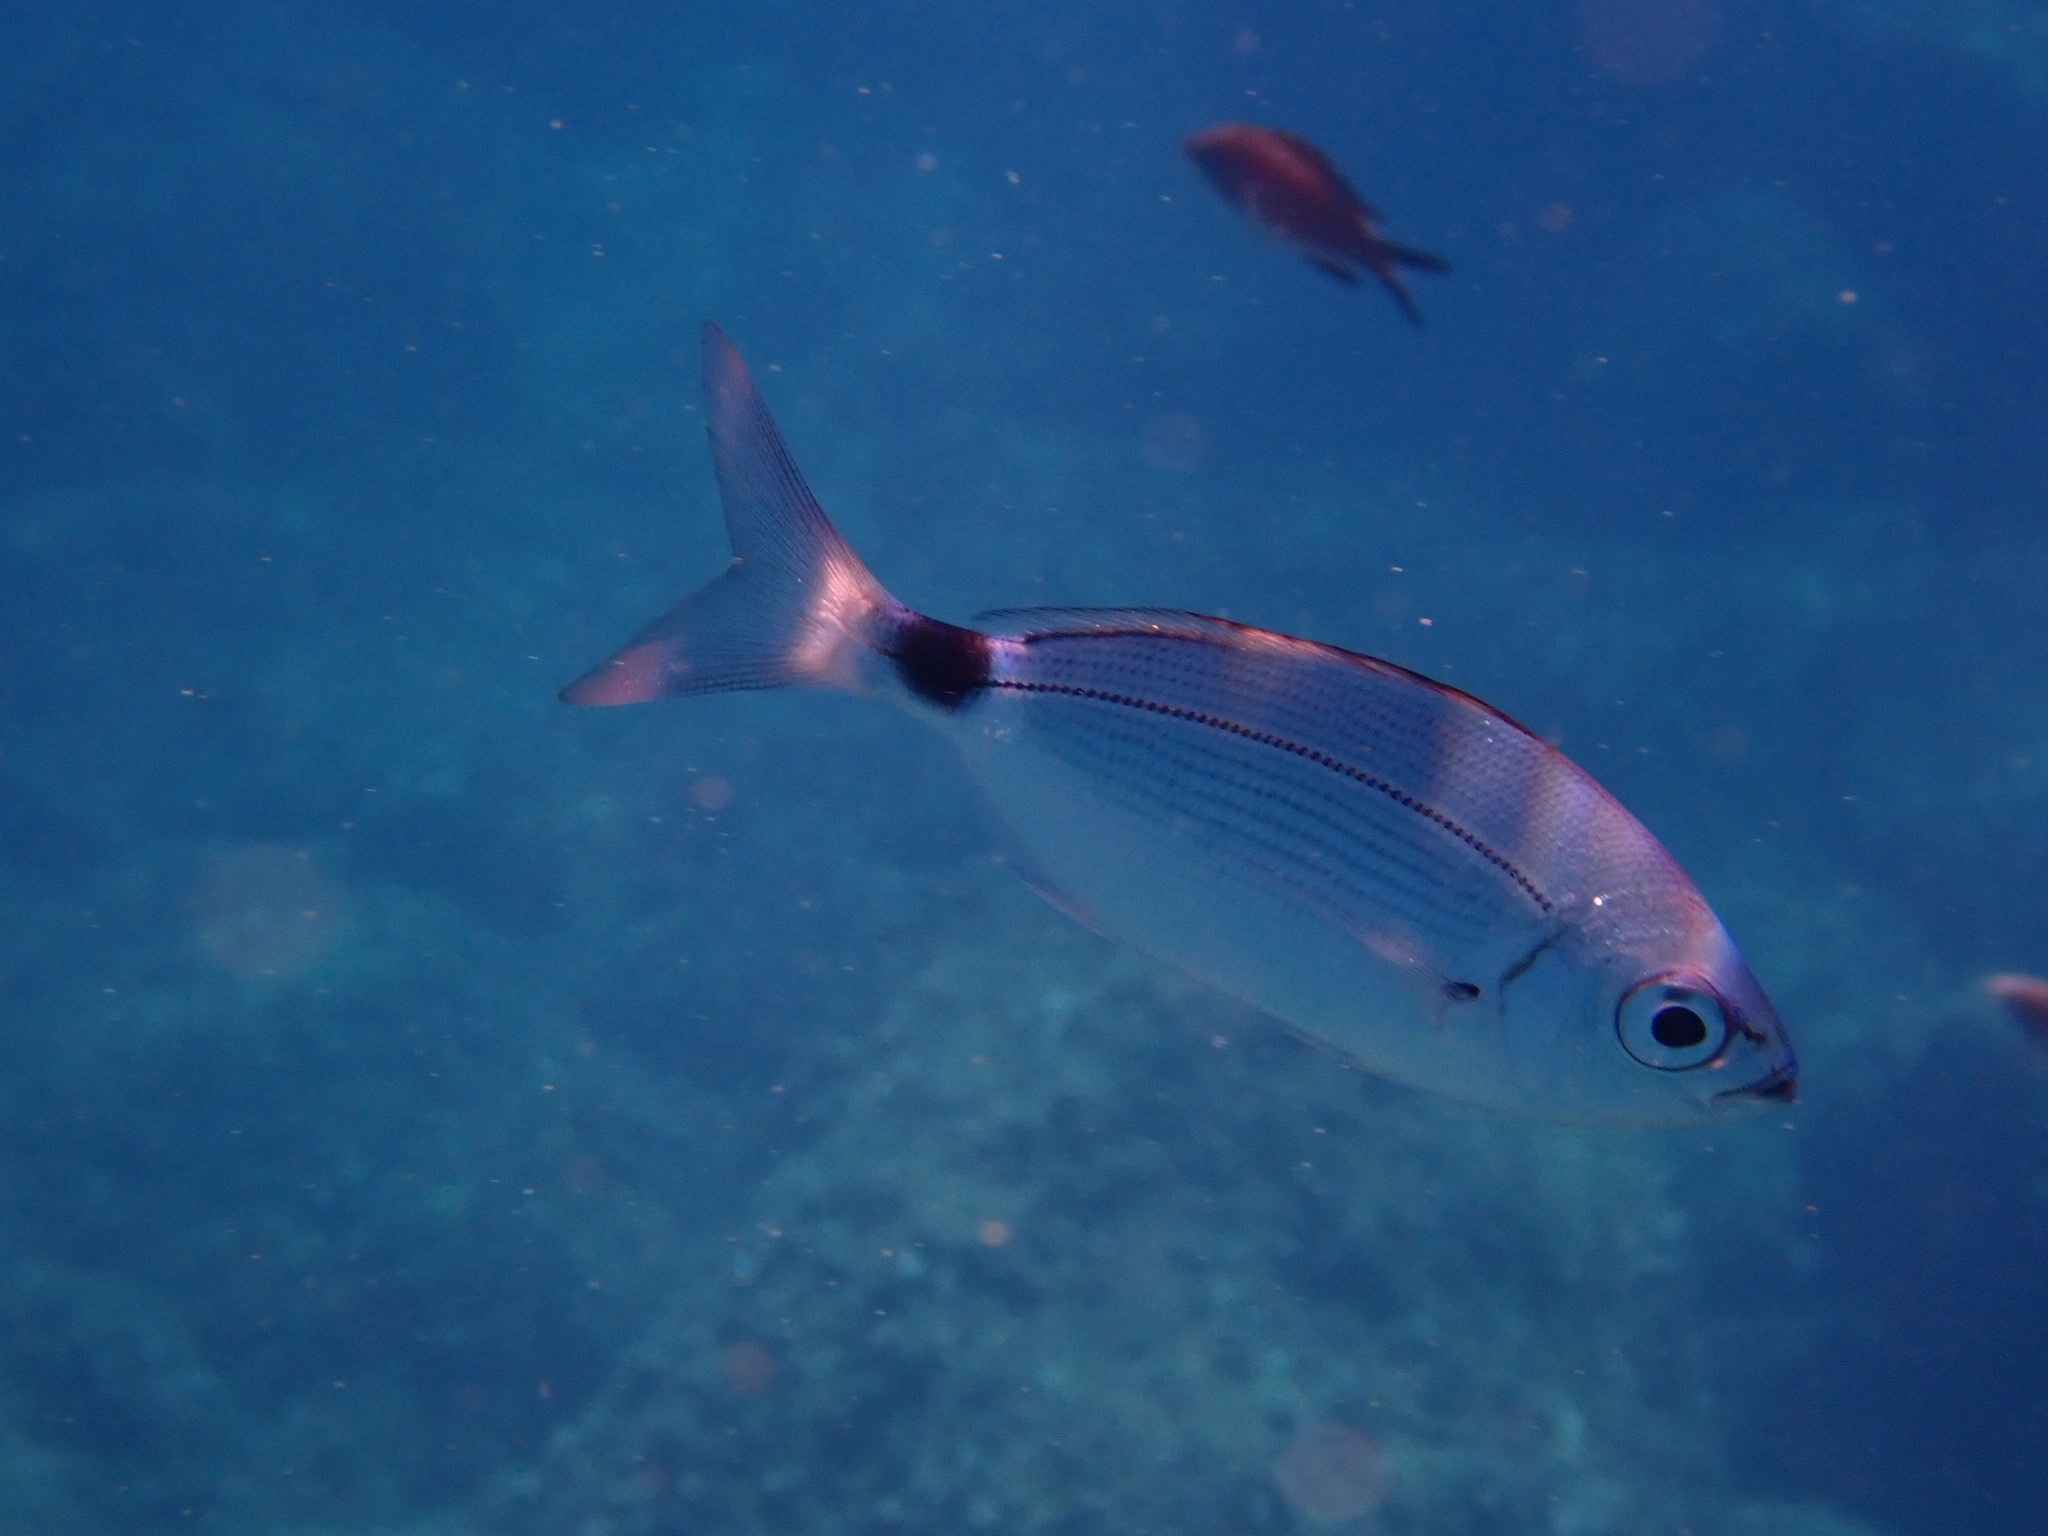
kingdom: Animalia
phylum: Chordata
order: Perciformes
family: Sparidae
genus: Oblada
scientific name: Oblada melanura
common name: Saddled seabream
